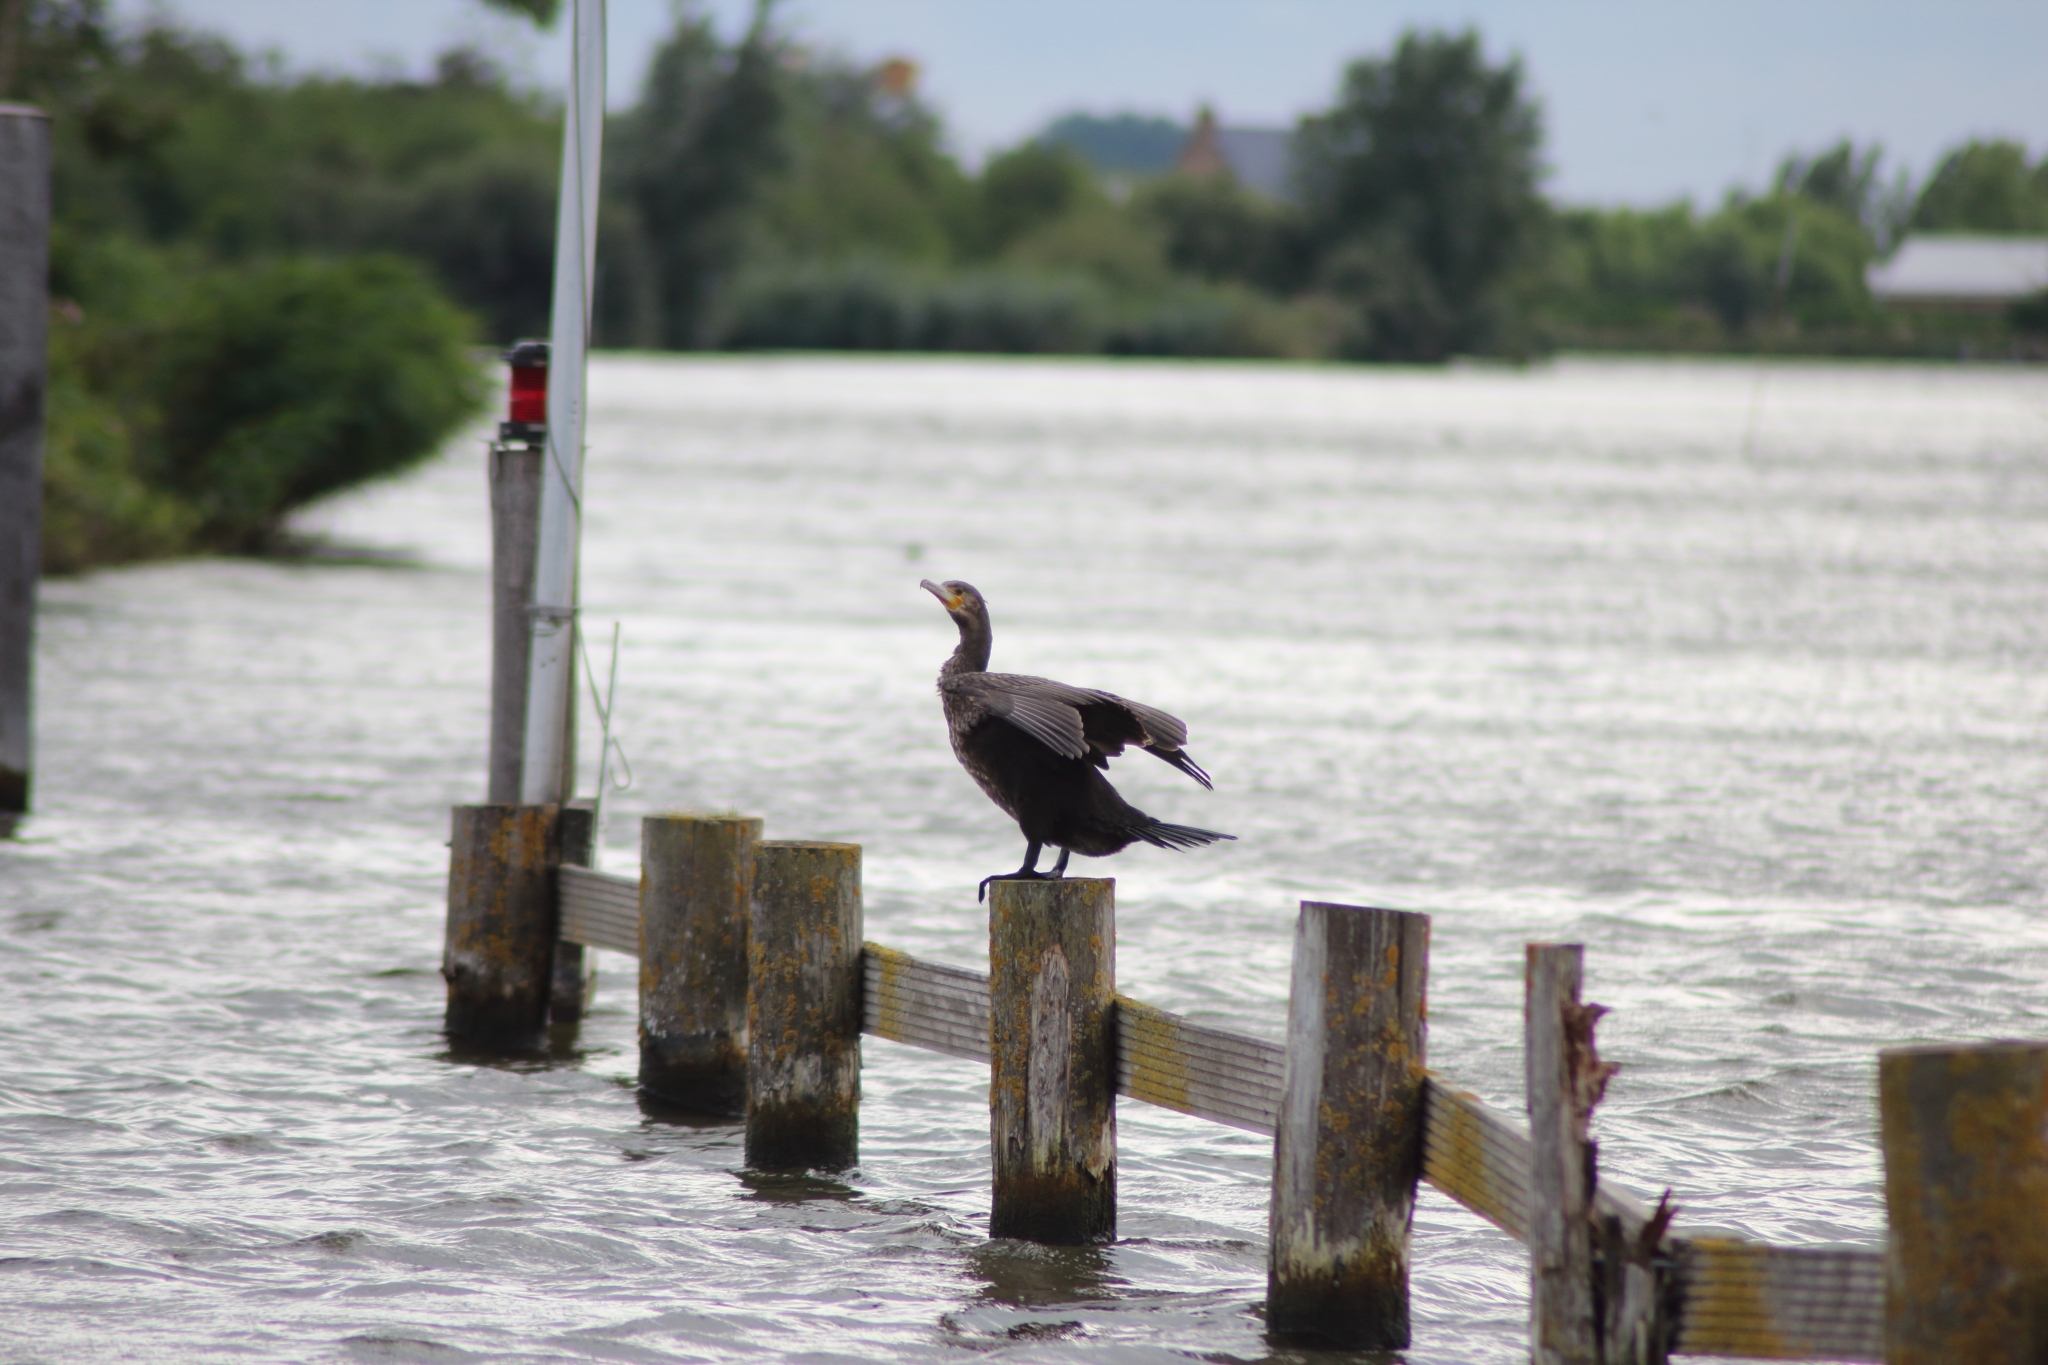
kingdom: Animalia
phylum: Chordata
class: Aves
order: Suliformes
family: Phalacrocoracidae
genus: Phalacrocorax
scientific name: Phalacrocorax carbo
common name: Great cormorant
